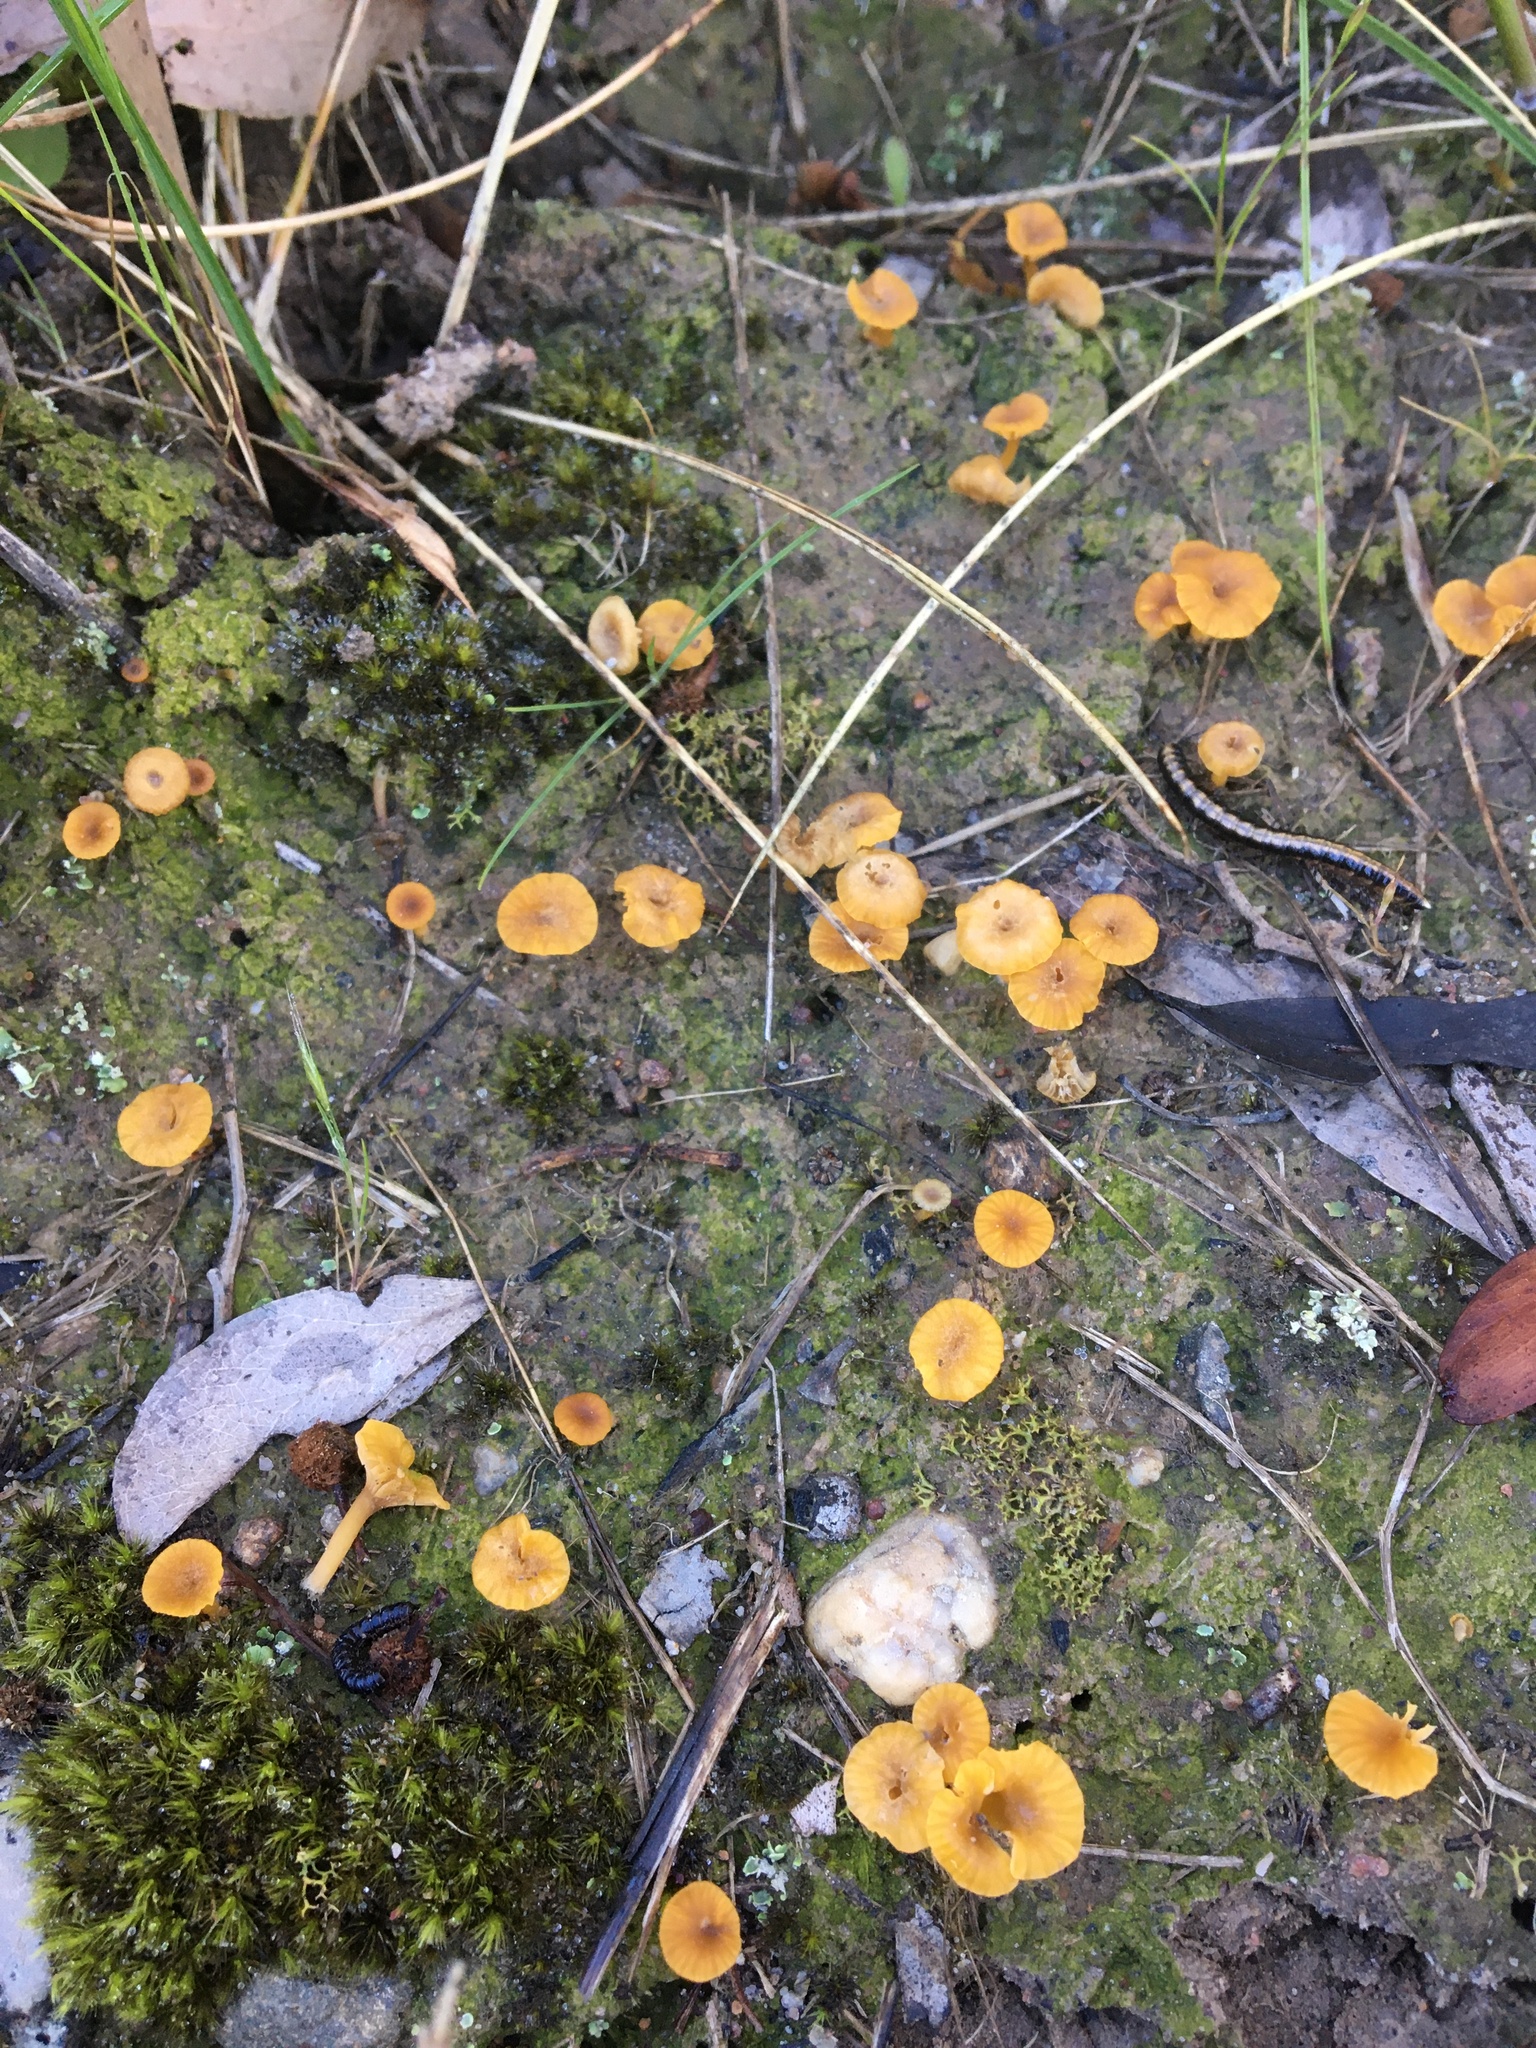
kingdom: Fungi
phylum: Basidiomycota
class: Agaricomycetes
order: Agaricales
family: Hygrophoraceae
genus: Lichenomphalia
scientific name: Lichenomphalia chromacea
